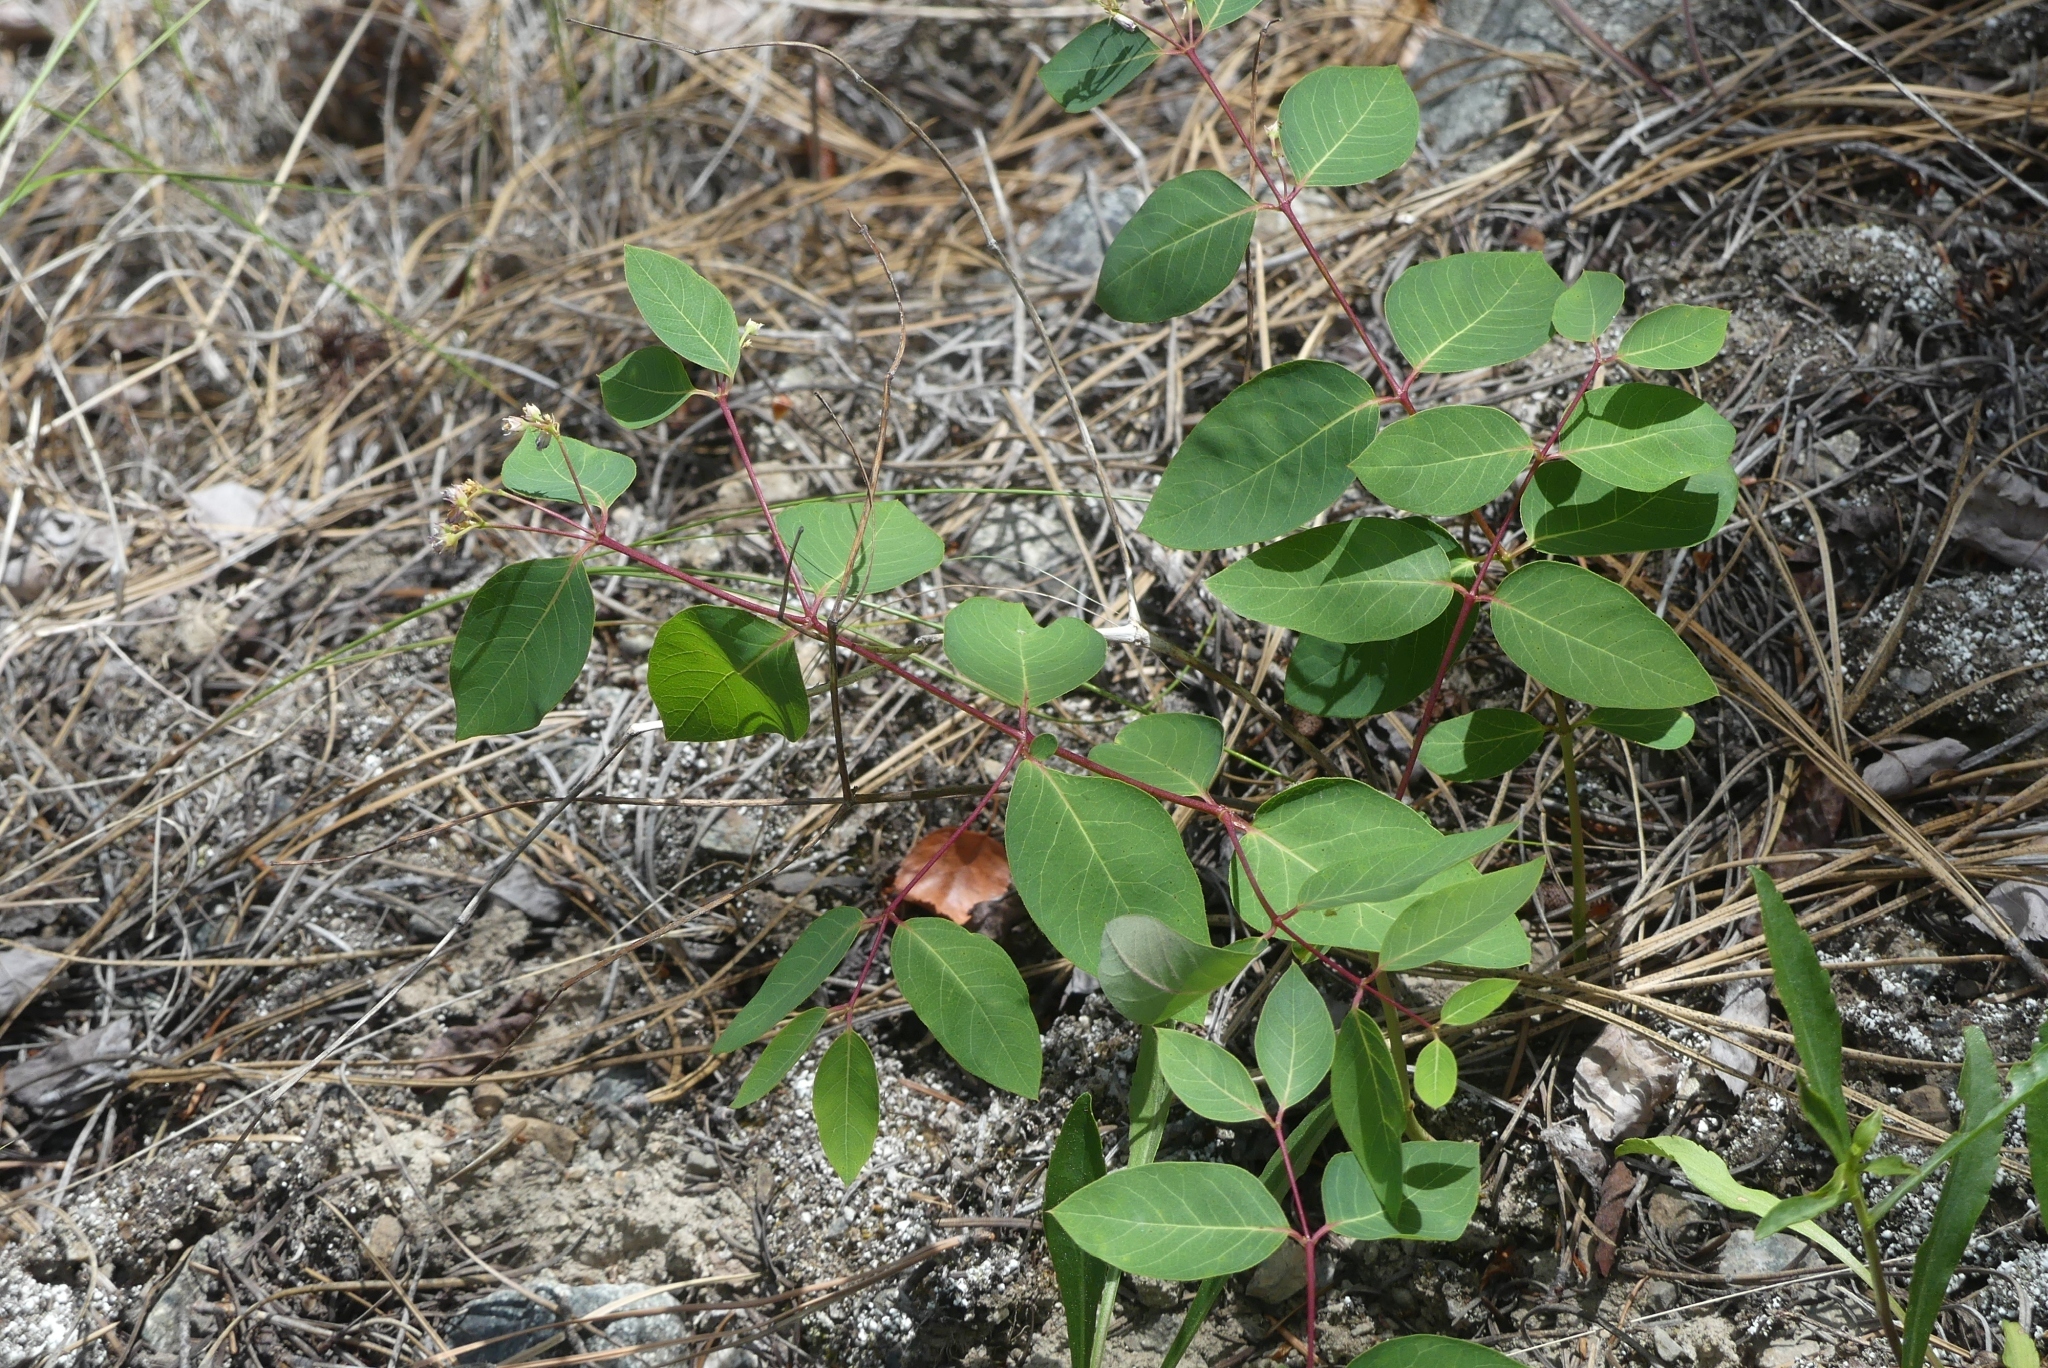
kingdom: Plantae
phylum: Tracheophyta
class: Magnoliopsida
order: Gentianales
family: Apocynaceae
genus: Apocynum
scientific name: Apocynum androsaemifolium
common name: Spreading dogbane
